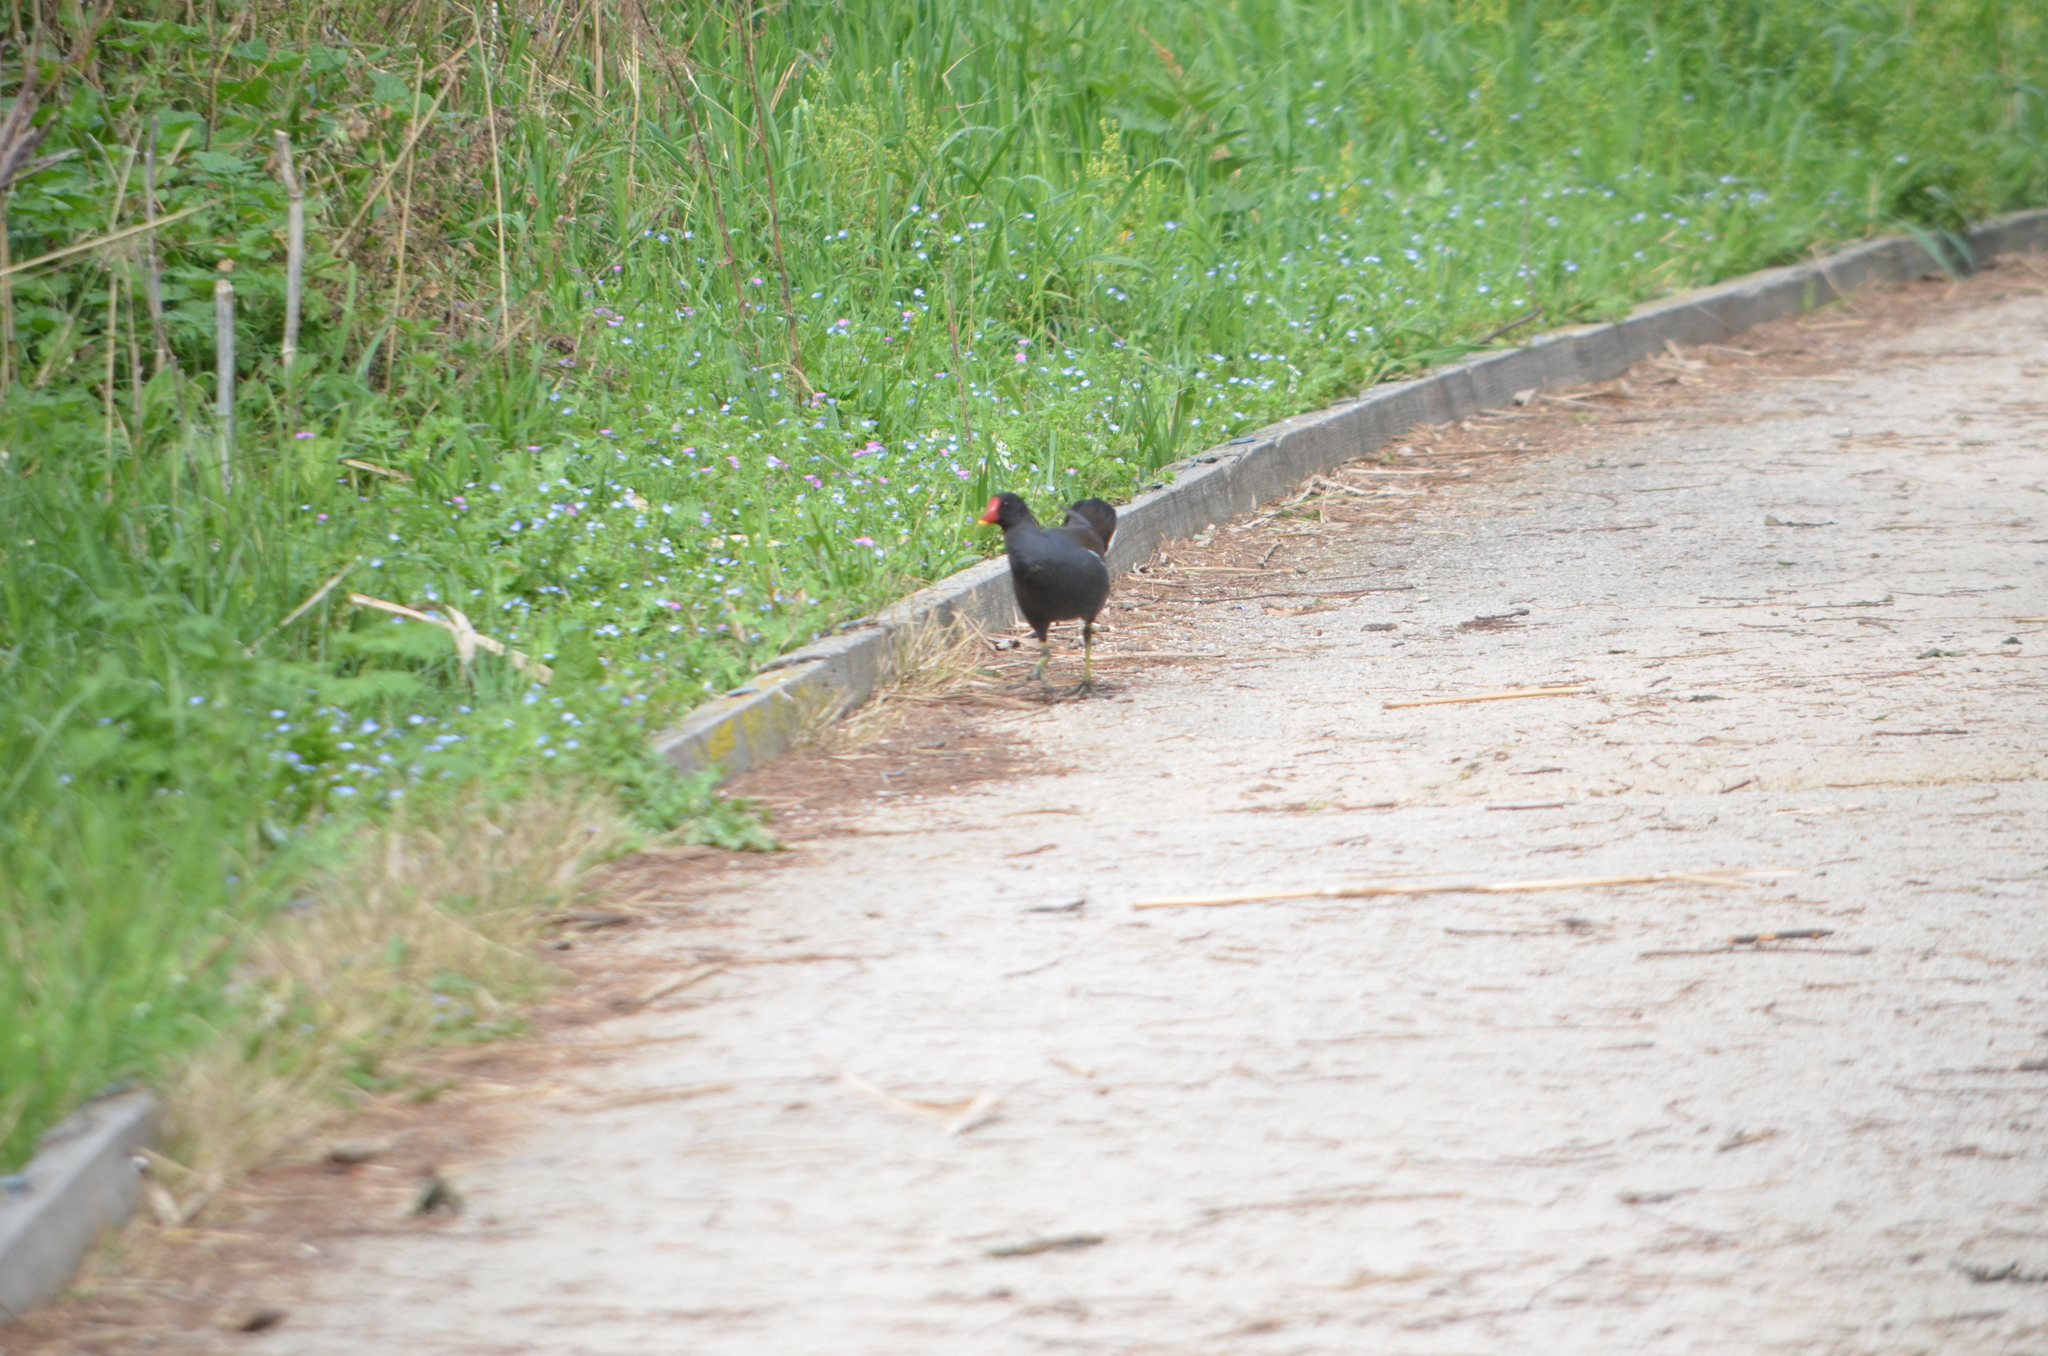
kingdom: Animalia
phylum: Chordata
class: Aves
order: Gruiformes
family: Rallidae
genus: Gallinula
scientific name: Gallinula chloropus
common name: Common moorhen
